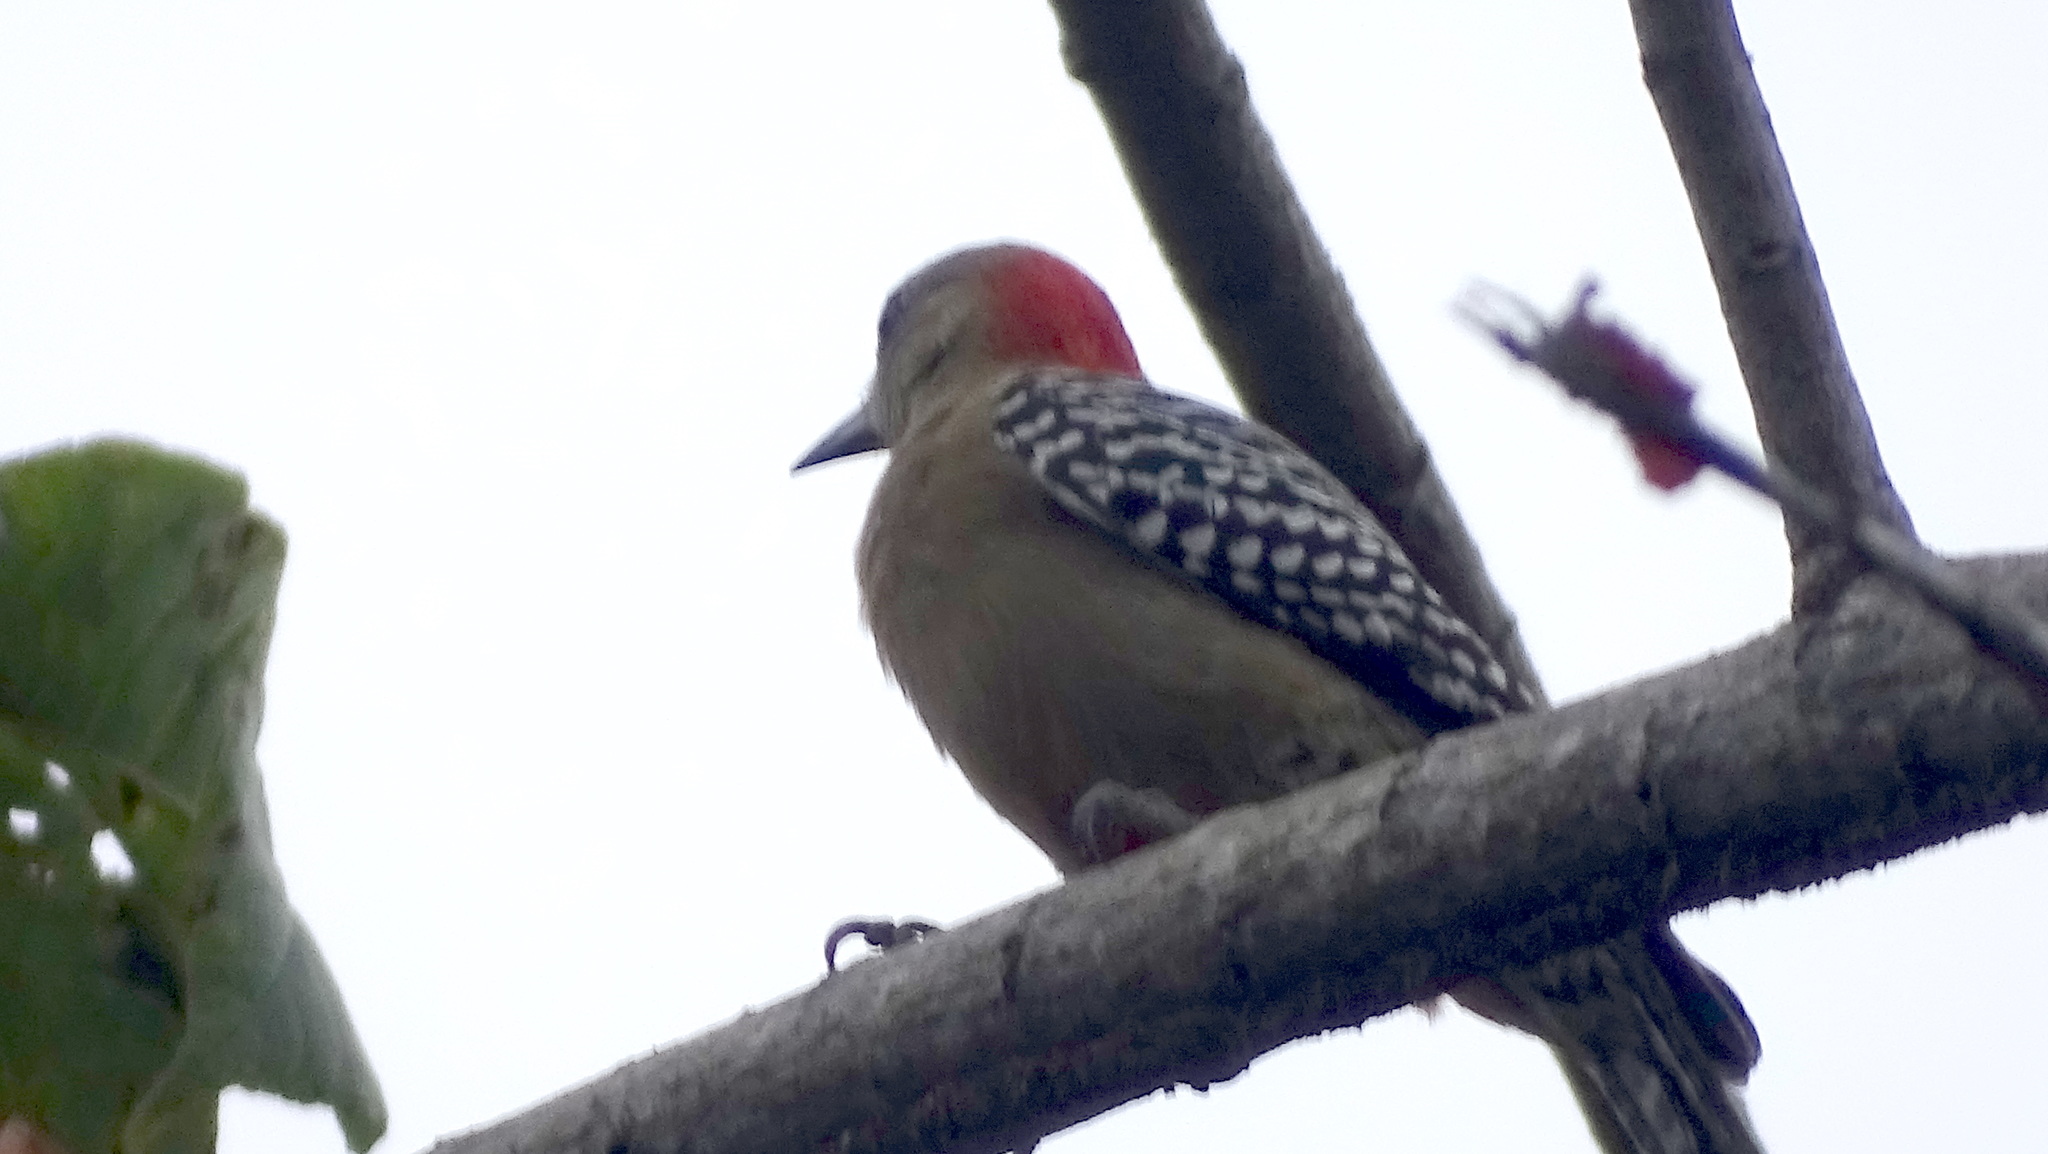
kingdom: Animalia
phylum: Chordata
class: Aves
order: Piciformes
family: Picidae
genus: Melanerpes
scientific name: Melanerpes rubricapillus
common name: Red-crowned woodpecker
